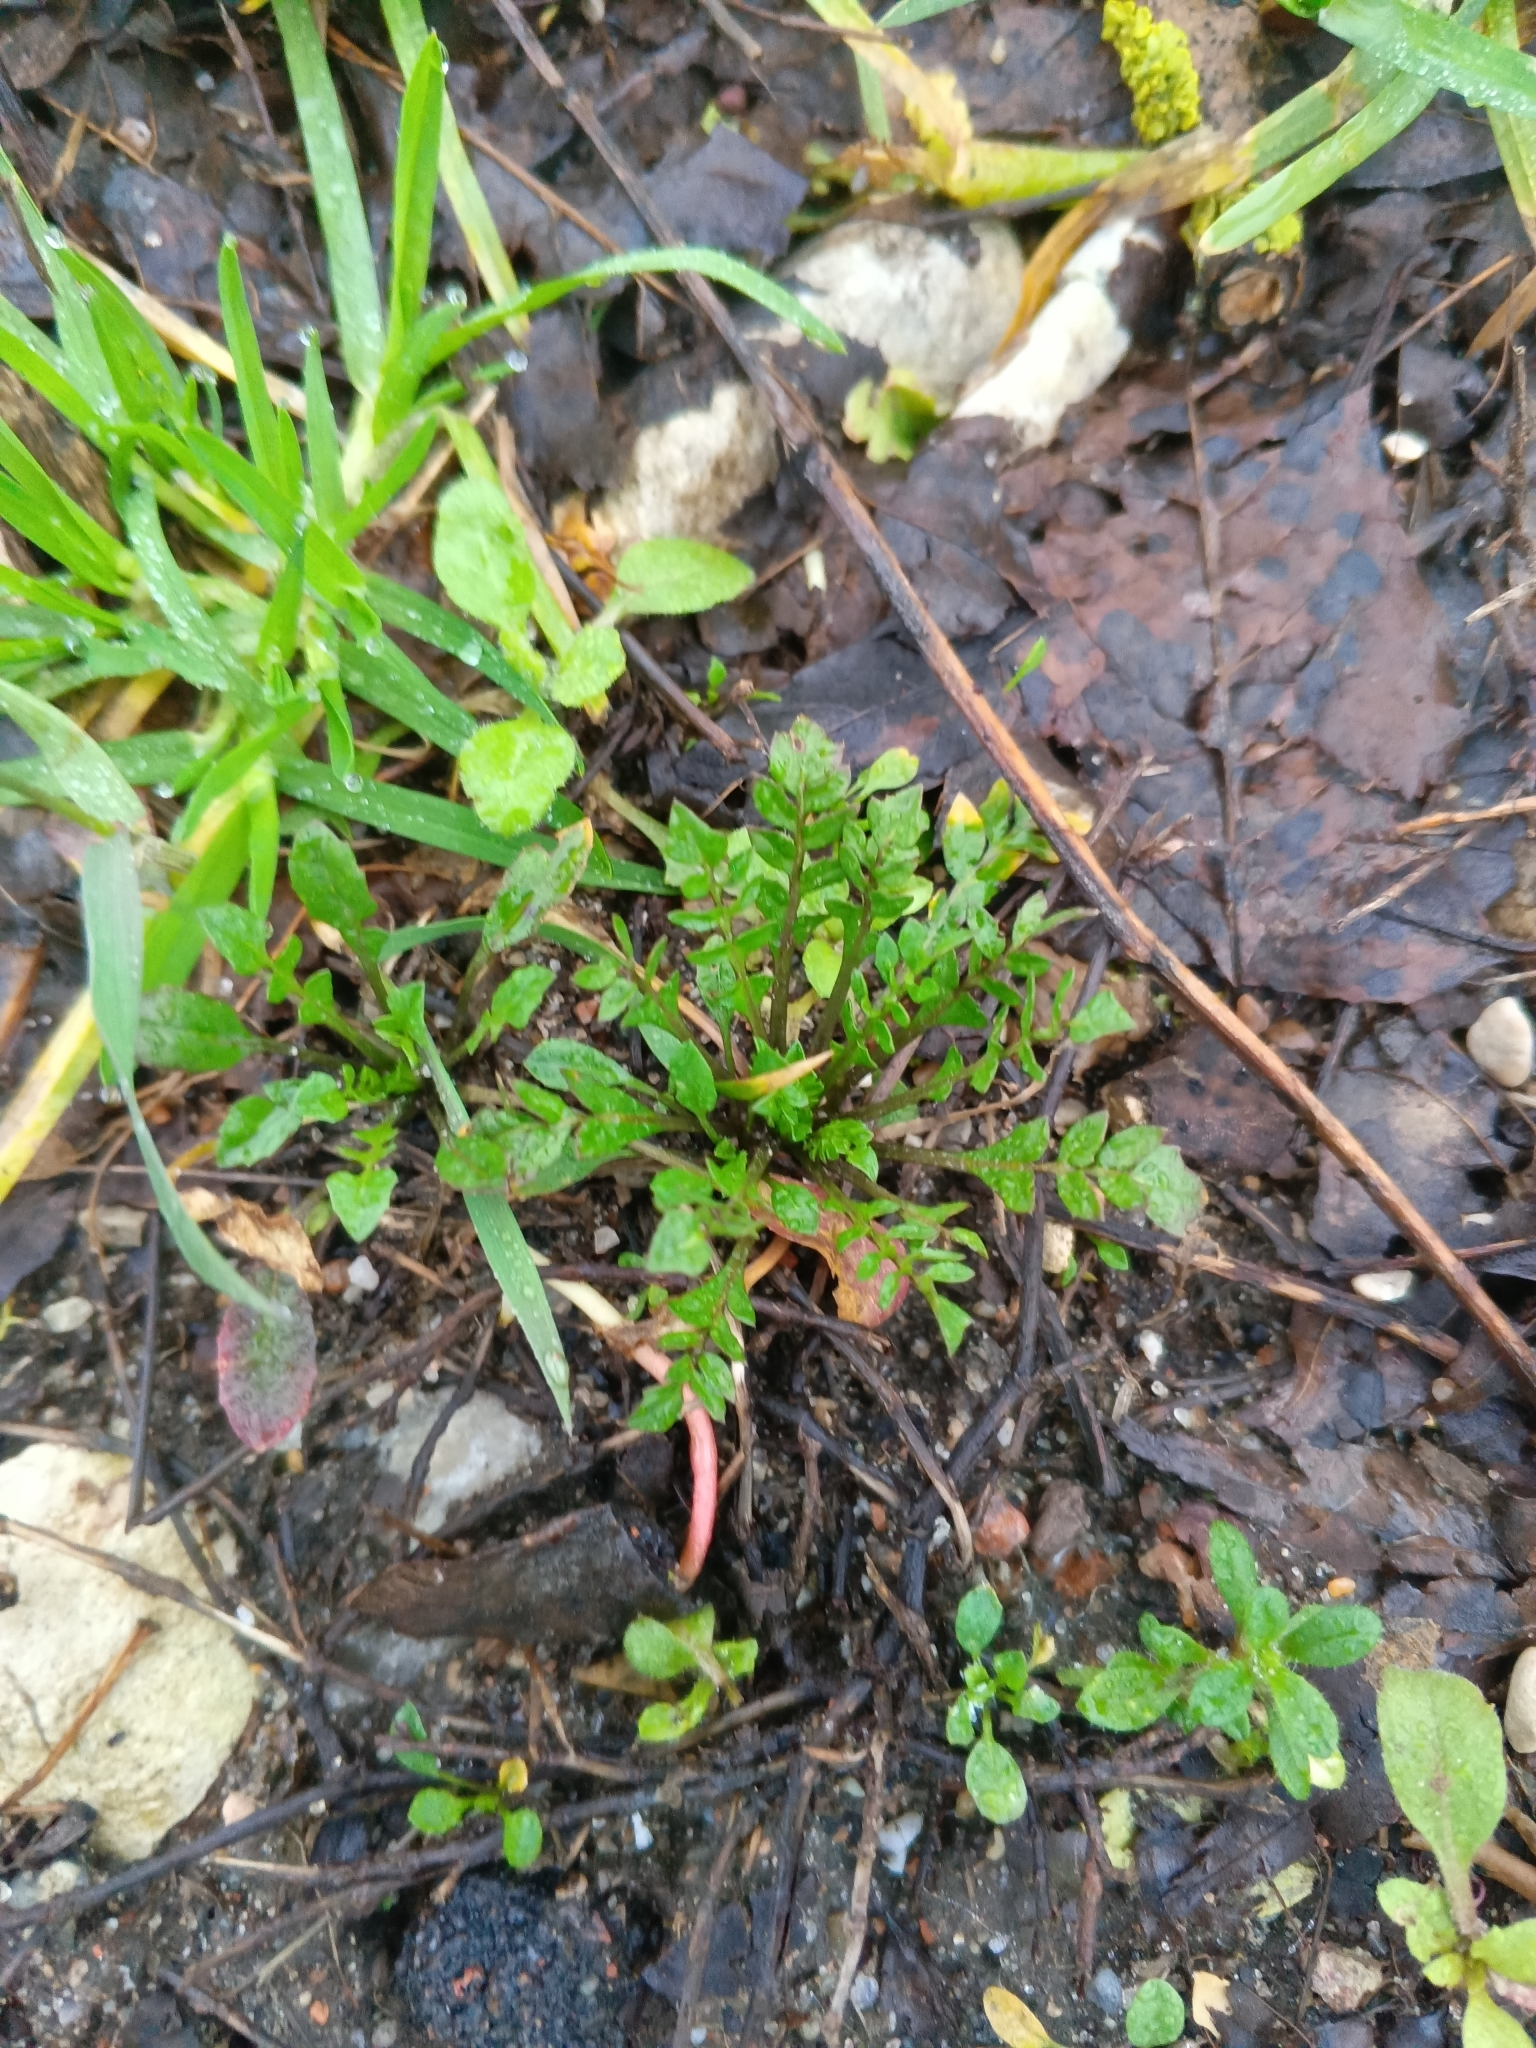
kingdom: Plantae
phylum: Tracheophyta
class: Magnoliopsida
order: Brassicales
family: Brassicaceae
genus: Capsella
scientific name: Capsella bursa-pastoris
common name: Shepherd's purse
